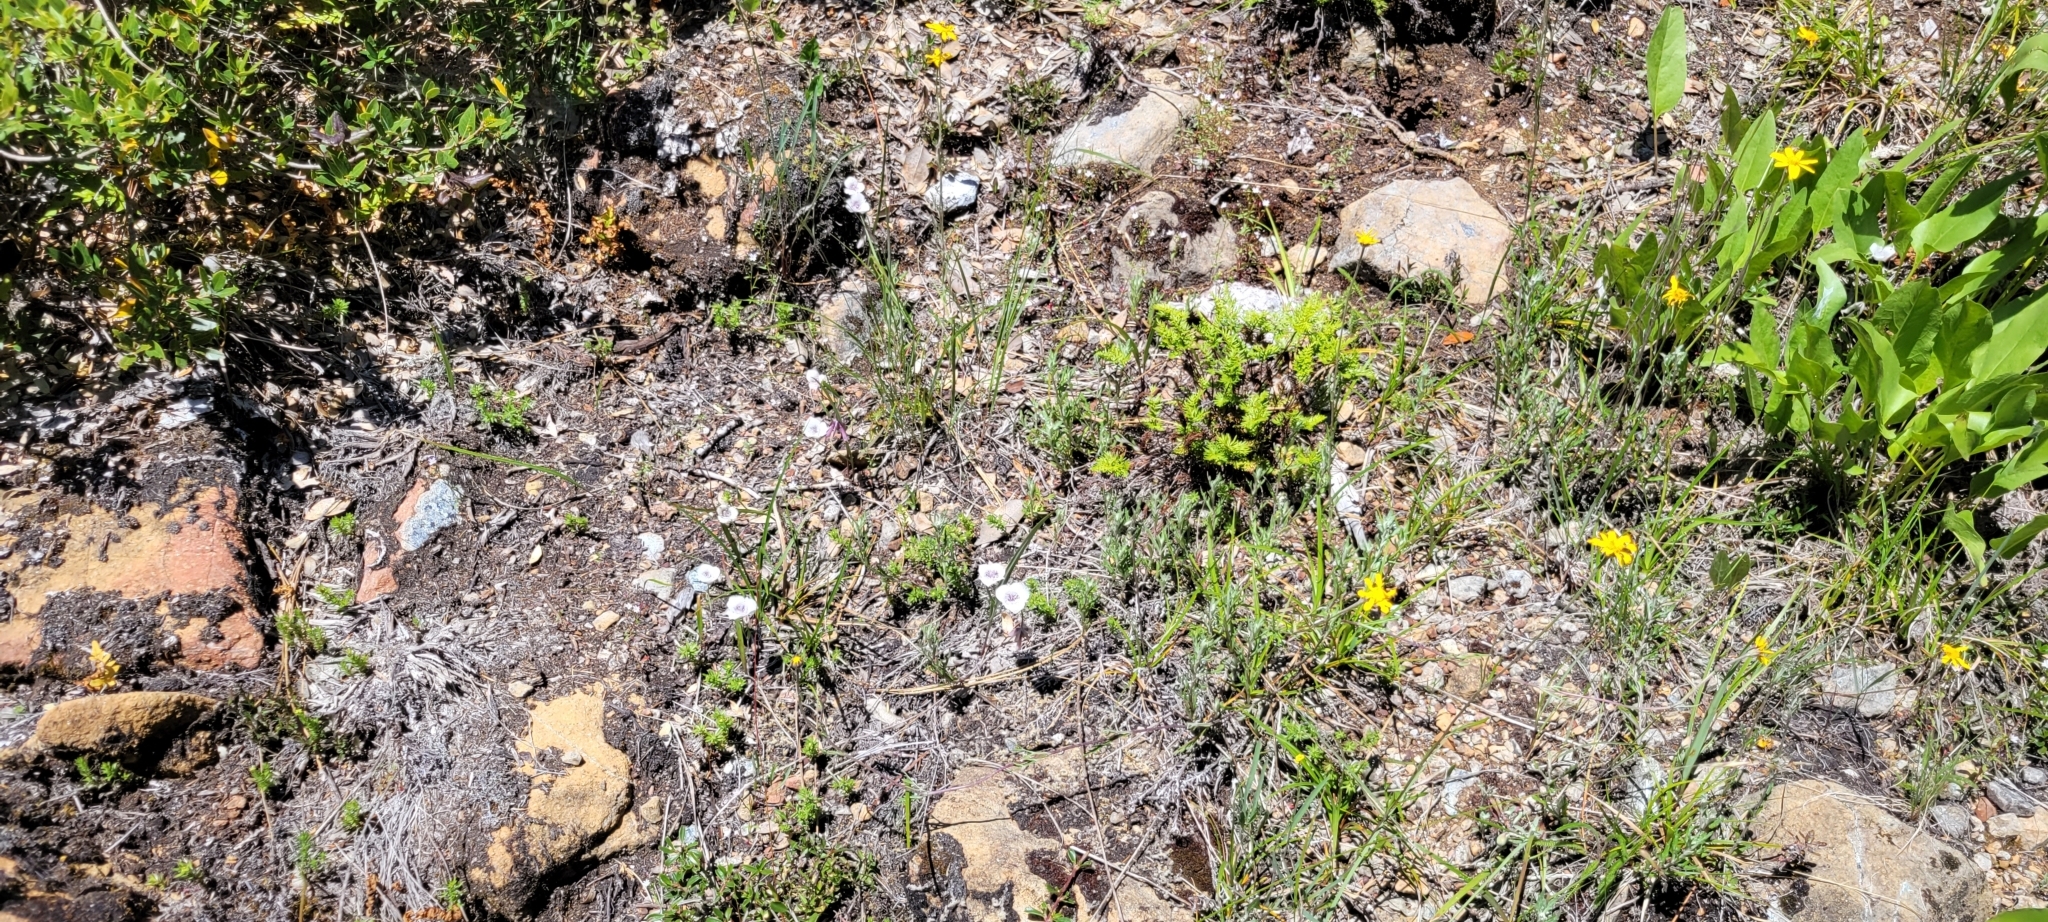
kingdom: Plantae
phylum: Tracheophyta
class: Liliopsida
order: Liliales
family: Liliaceae
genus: Calochortus
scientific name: Calochortus tolmiei
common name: Pussy-ears
